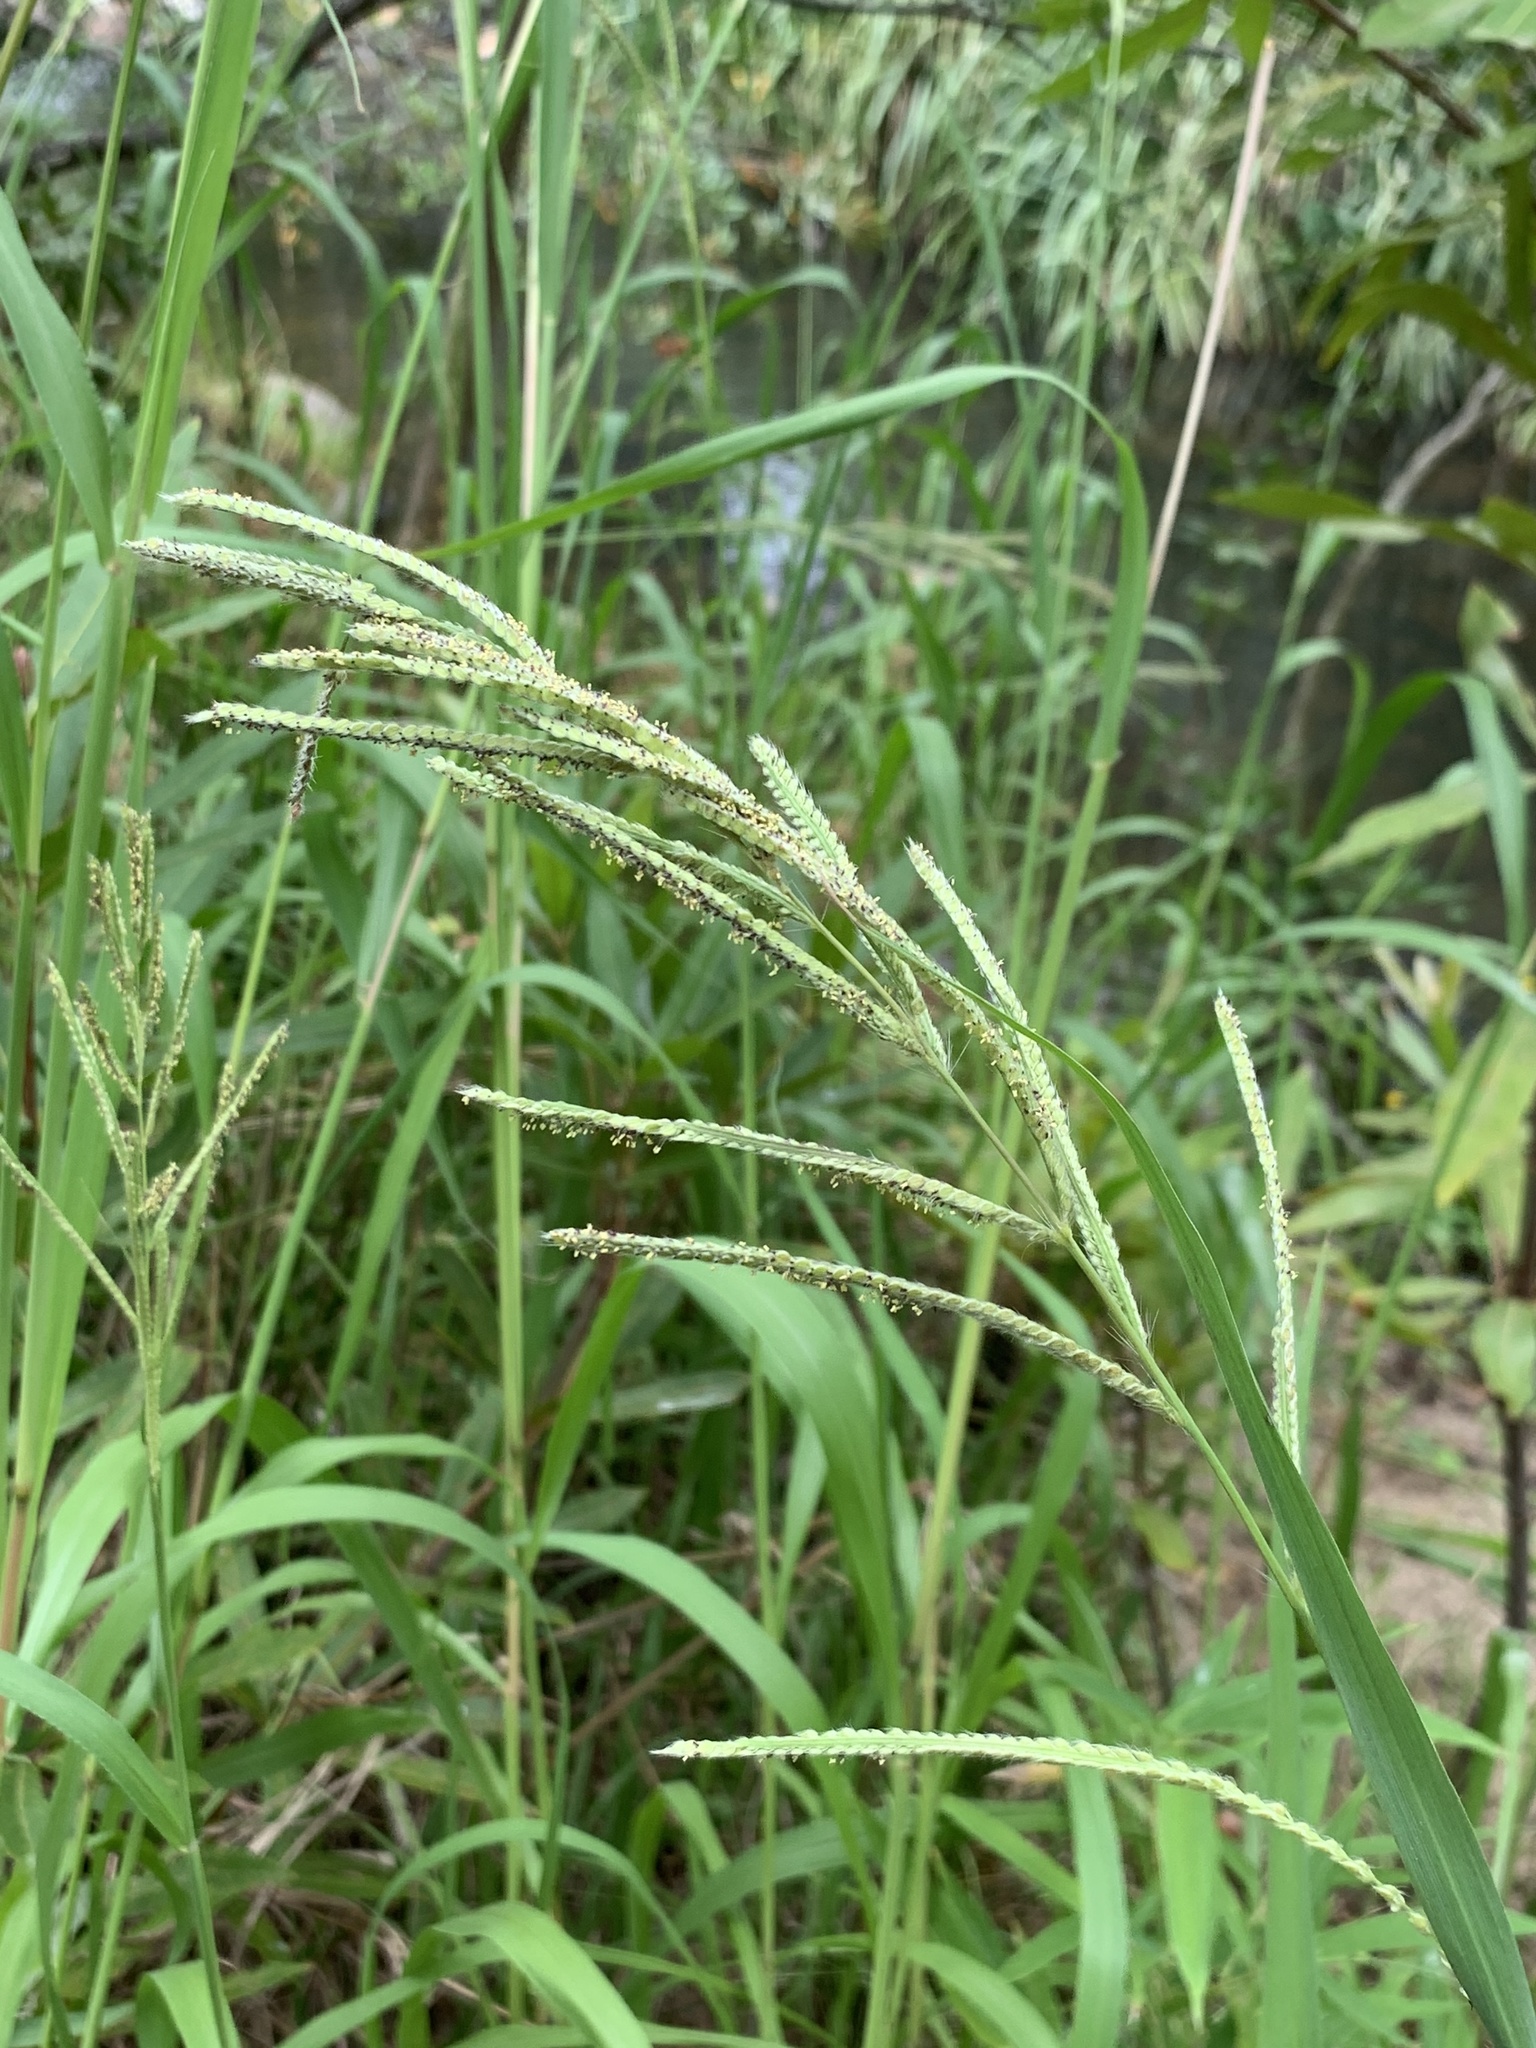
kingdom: Plantae
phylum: Tracheophyta
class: Liliopsida
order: Poales
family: Poaceae
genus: Paspalum
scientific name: Paspalum urvillei
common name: Vasey's grass
